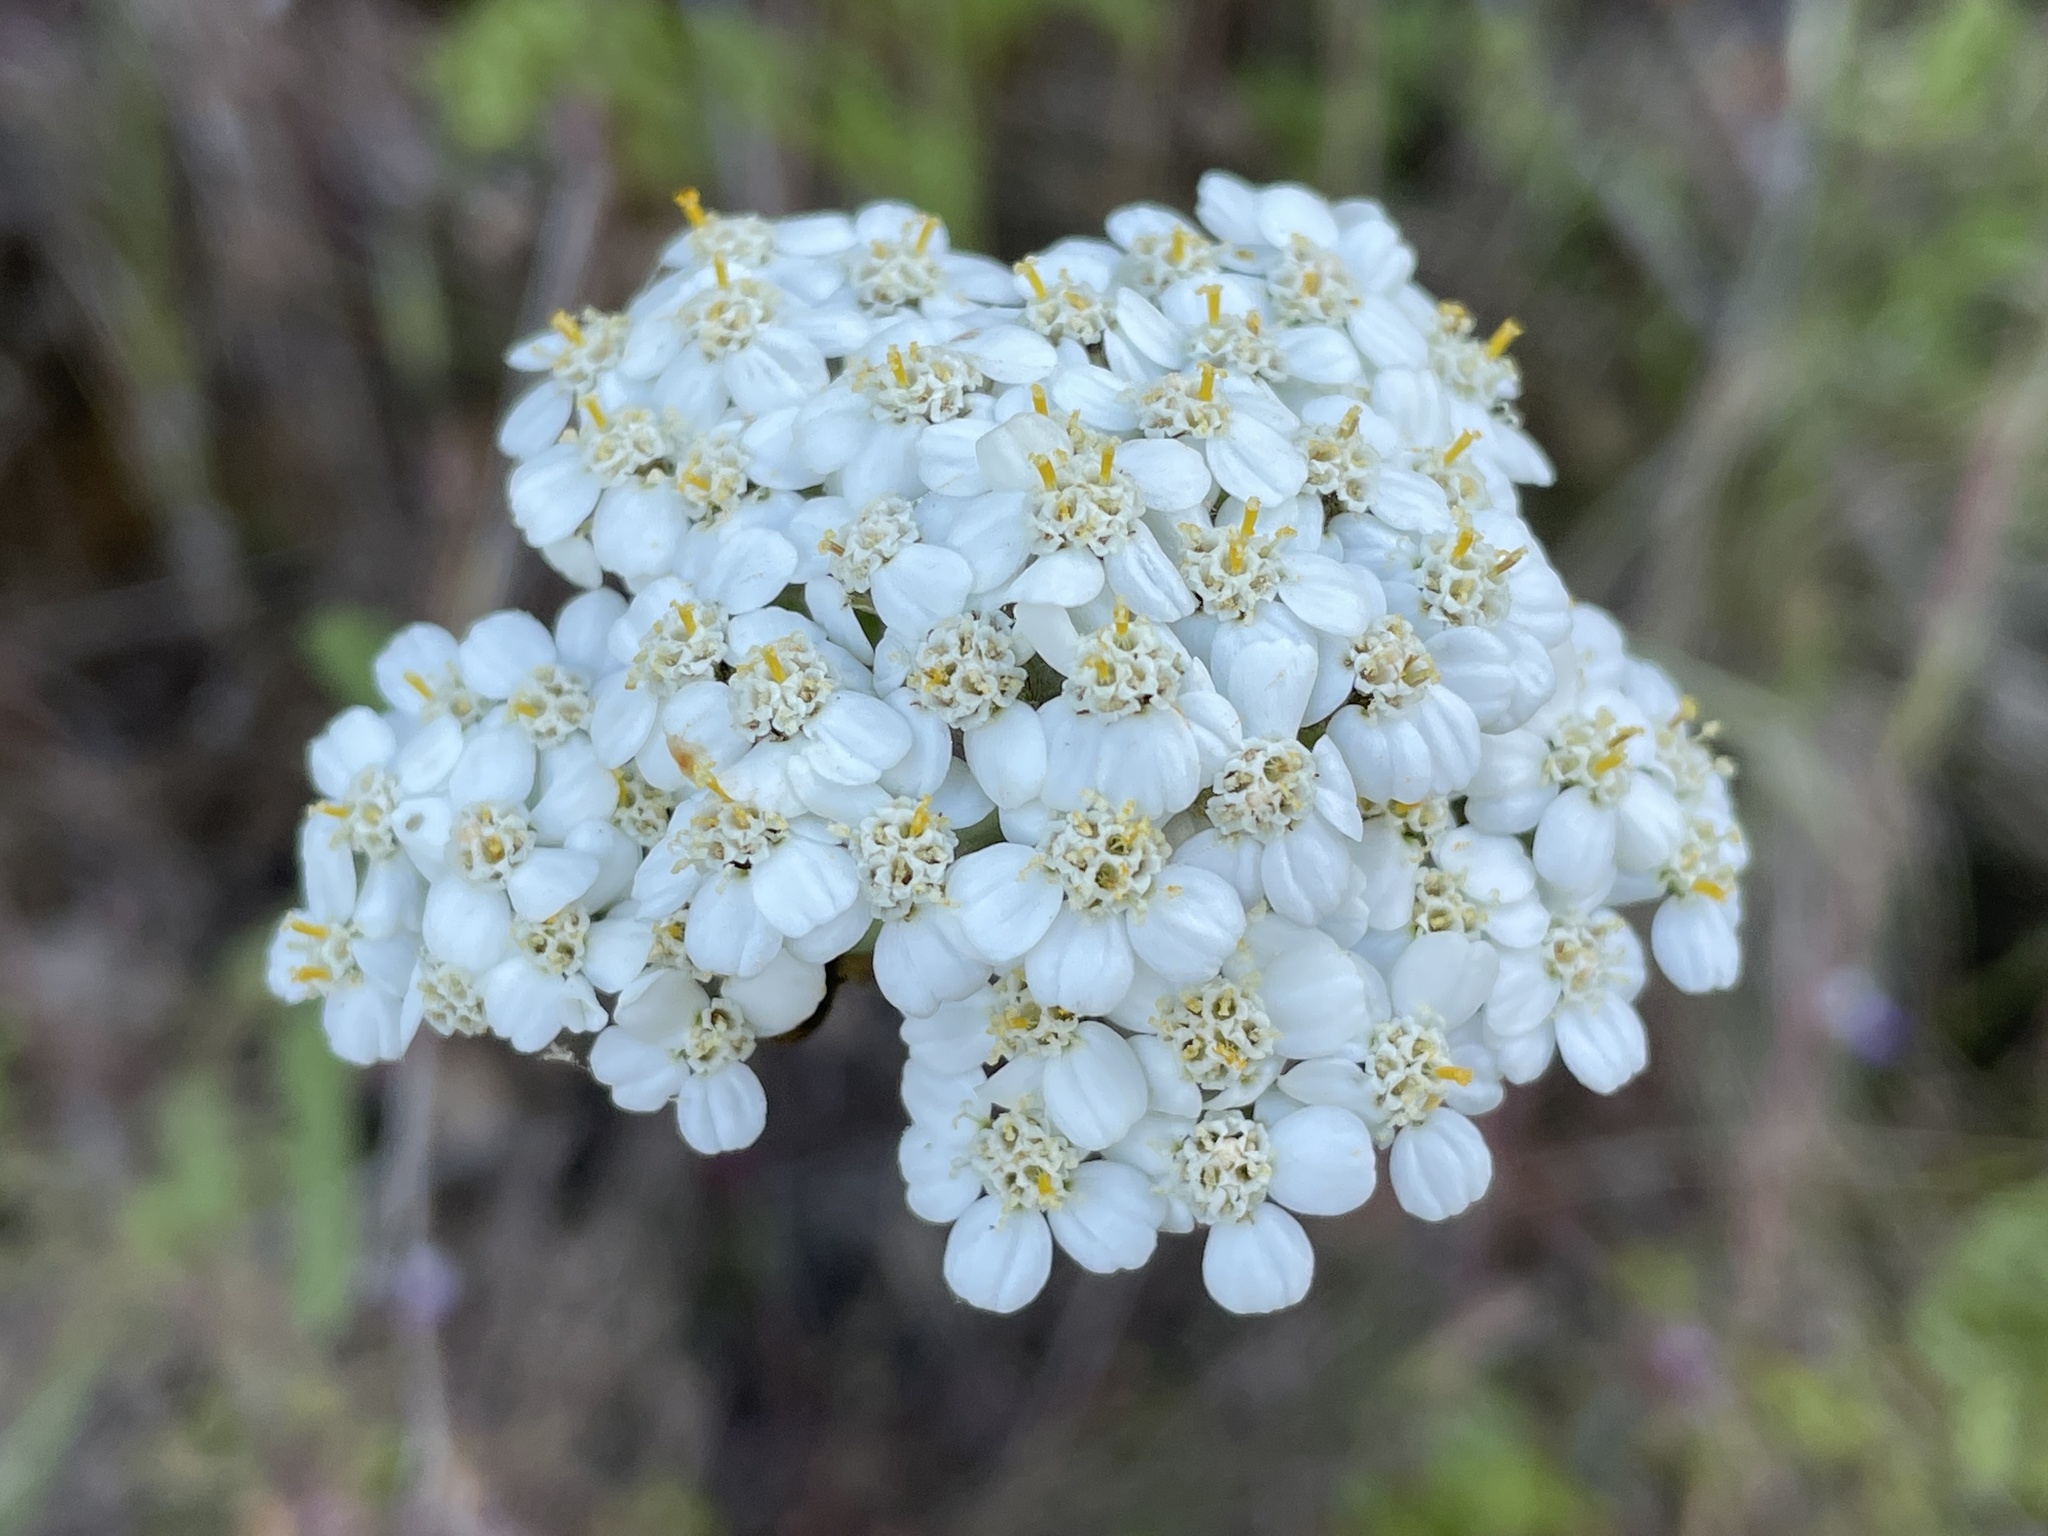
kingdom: Plantae
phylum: Tracheophyta
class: Magnoliopsida
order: Asterales
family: Asteraceae
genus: Achillea
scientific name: Achillea millefolium
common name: Yarrow
